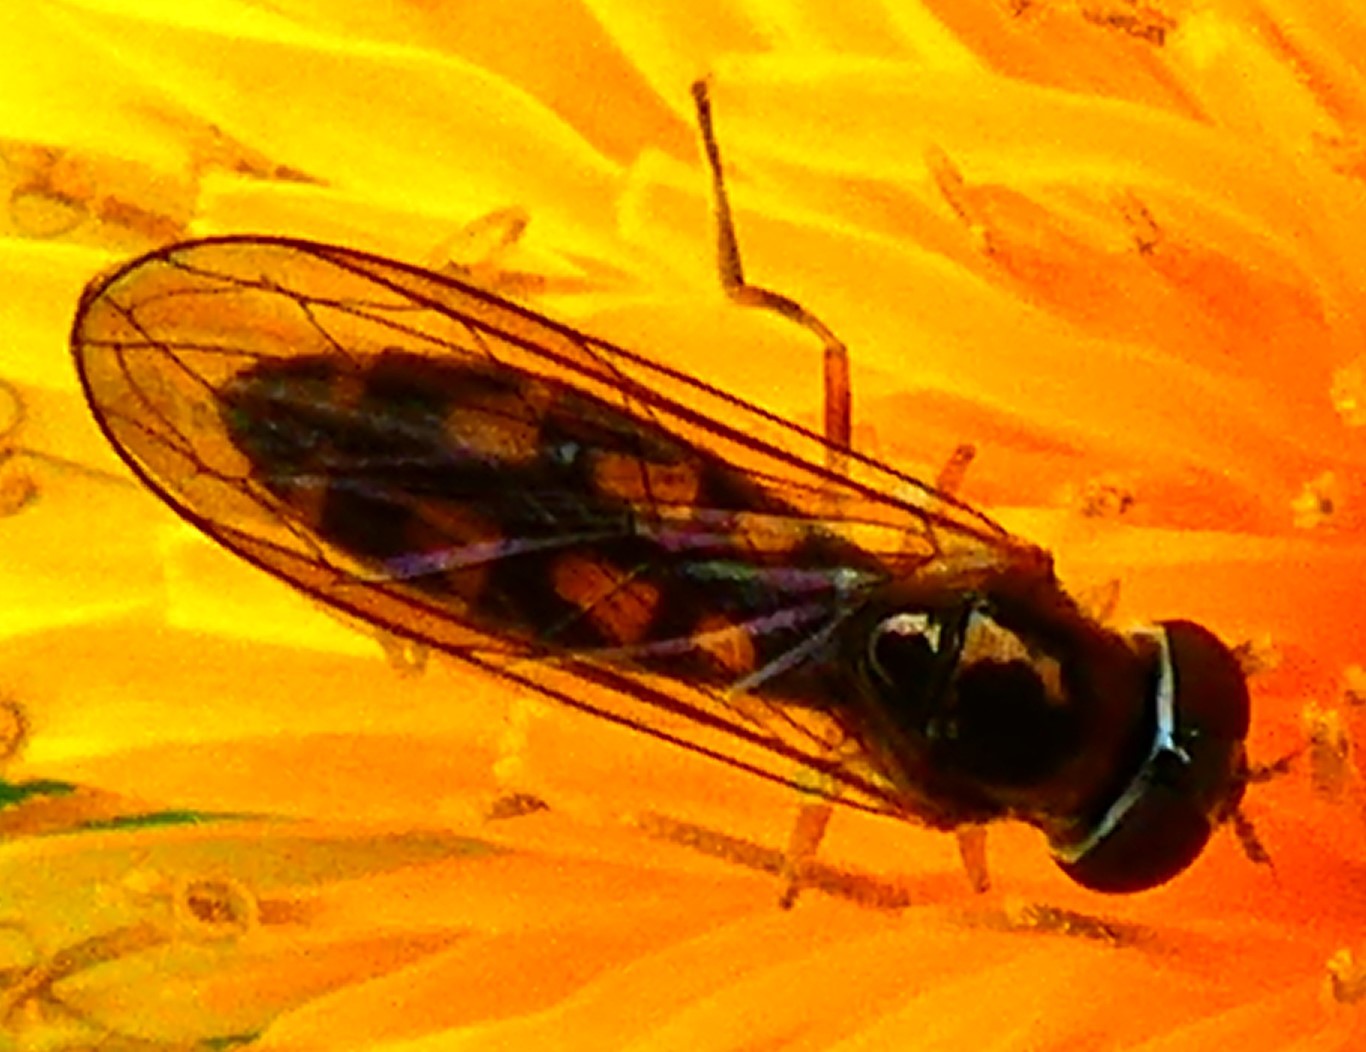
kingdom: Animalia
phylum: Arthropoda
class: Insecta
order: Diptera
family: Syrphidae
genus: Melanostoma
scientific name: Melanostoma
